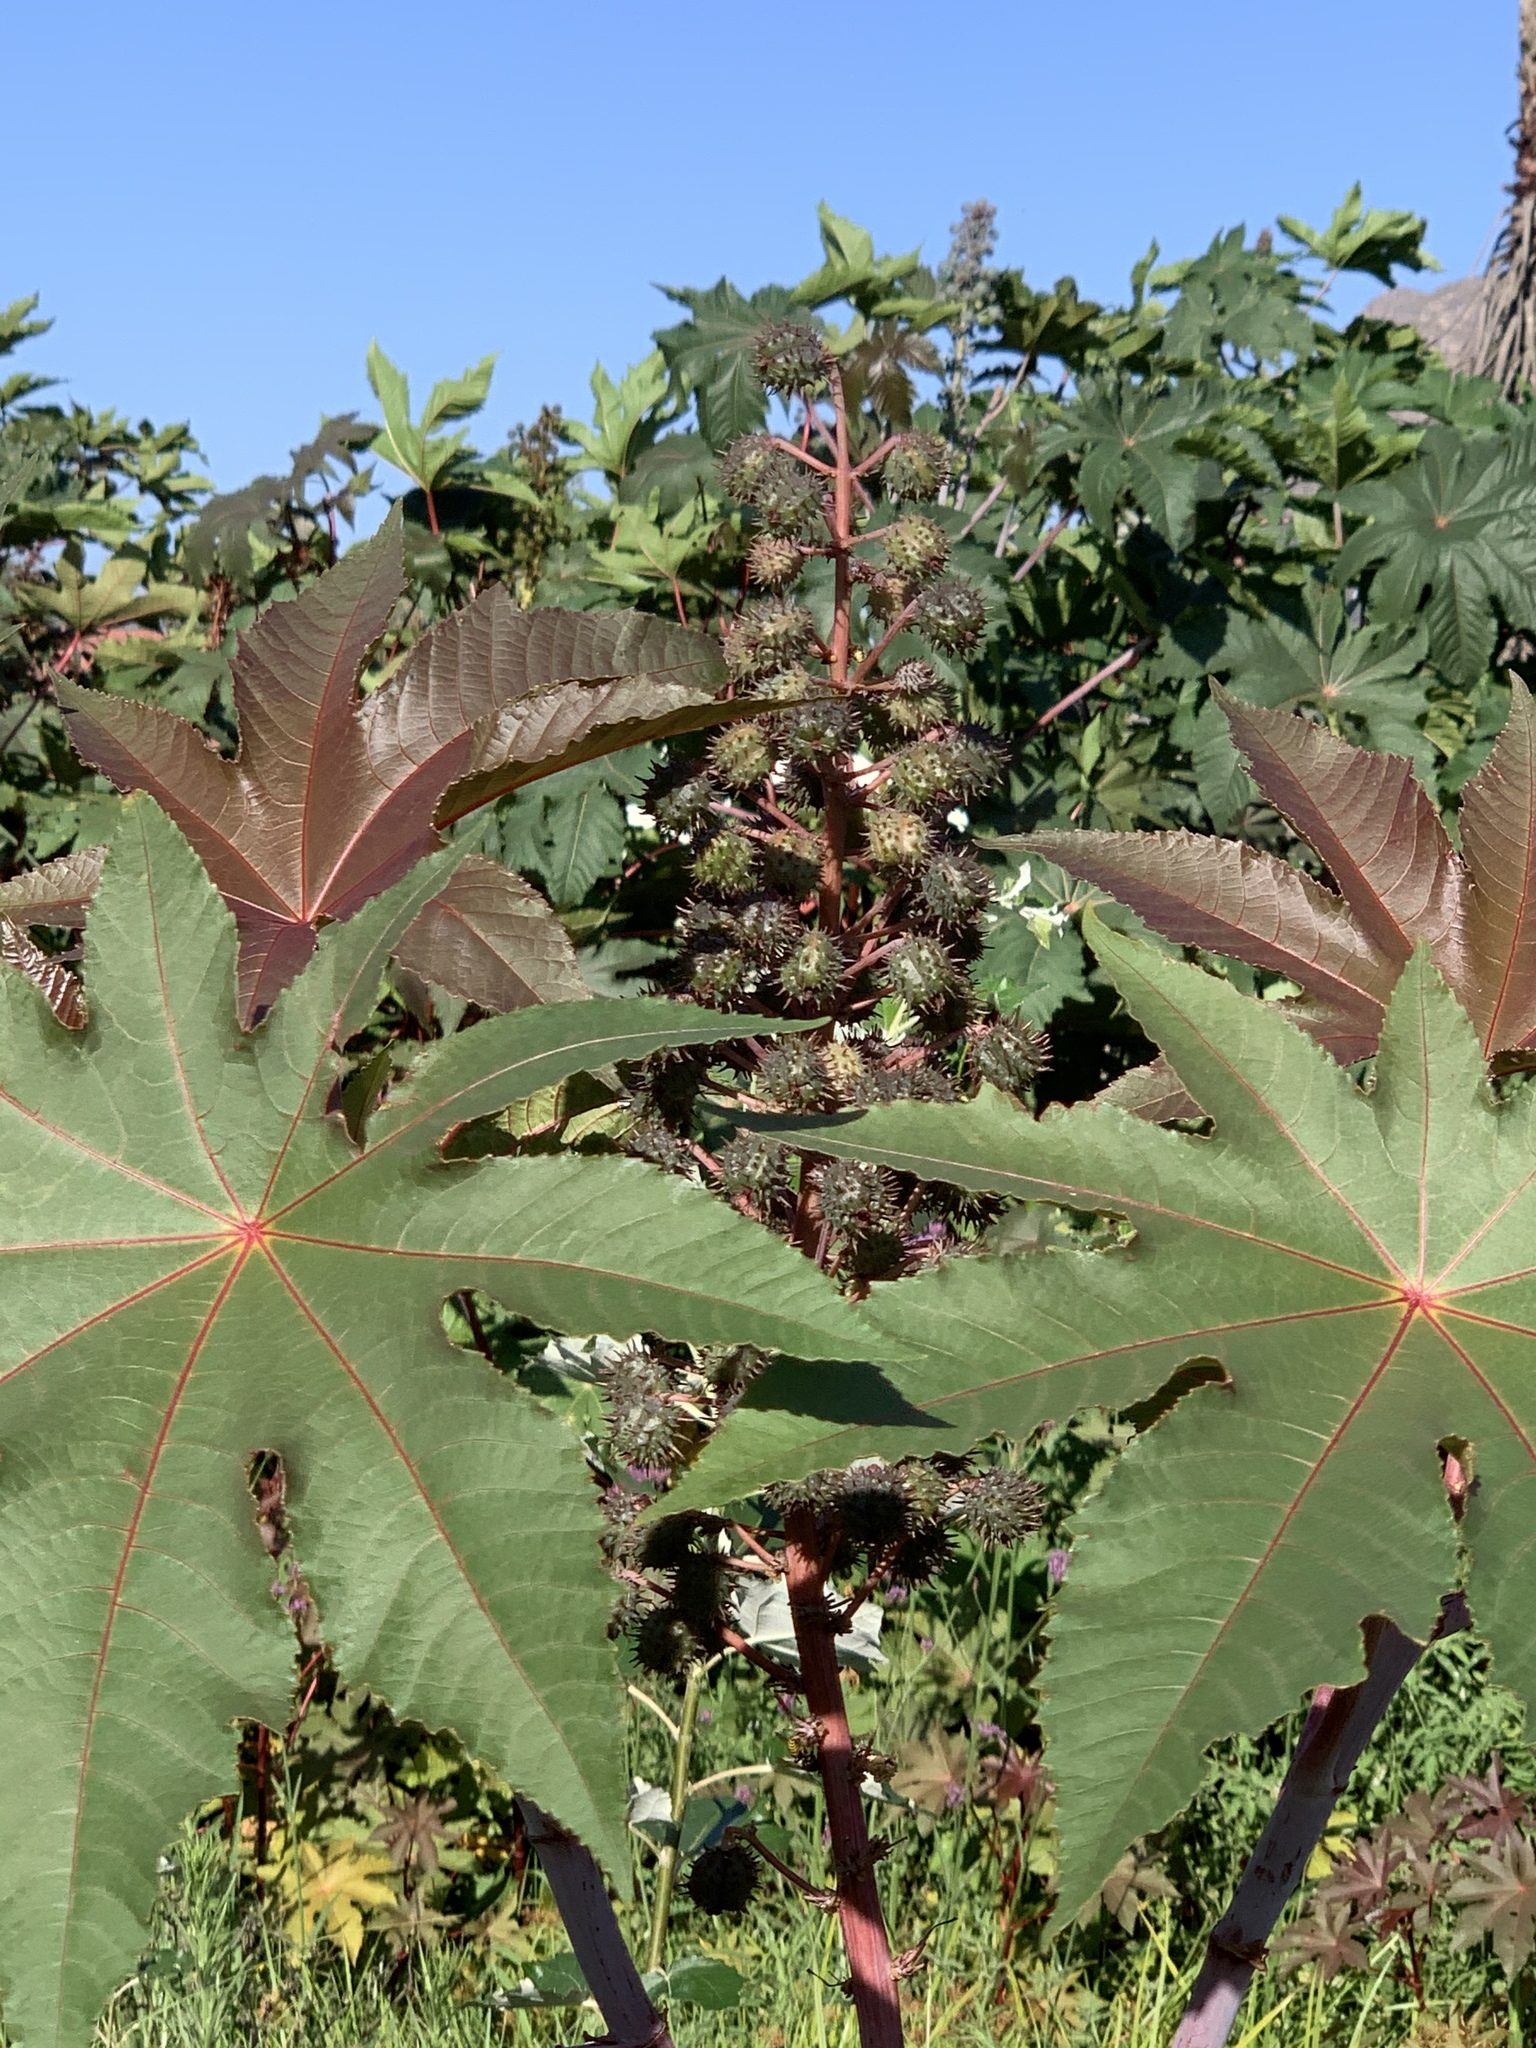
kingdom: Plantae
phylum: Tracheophyta
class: Magnoliopsida
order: Malpighiales
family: Euphorbiaceae
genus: Ricinus
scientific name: Ricinus communis
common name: Castor-oil-plant
